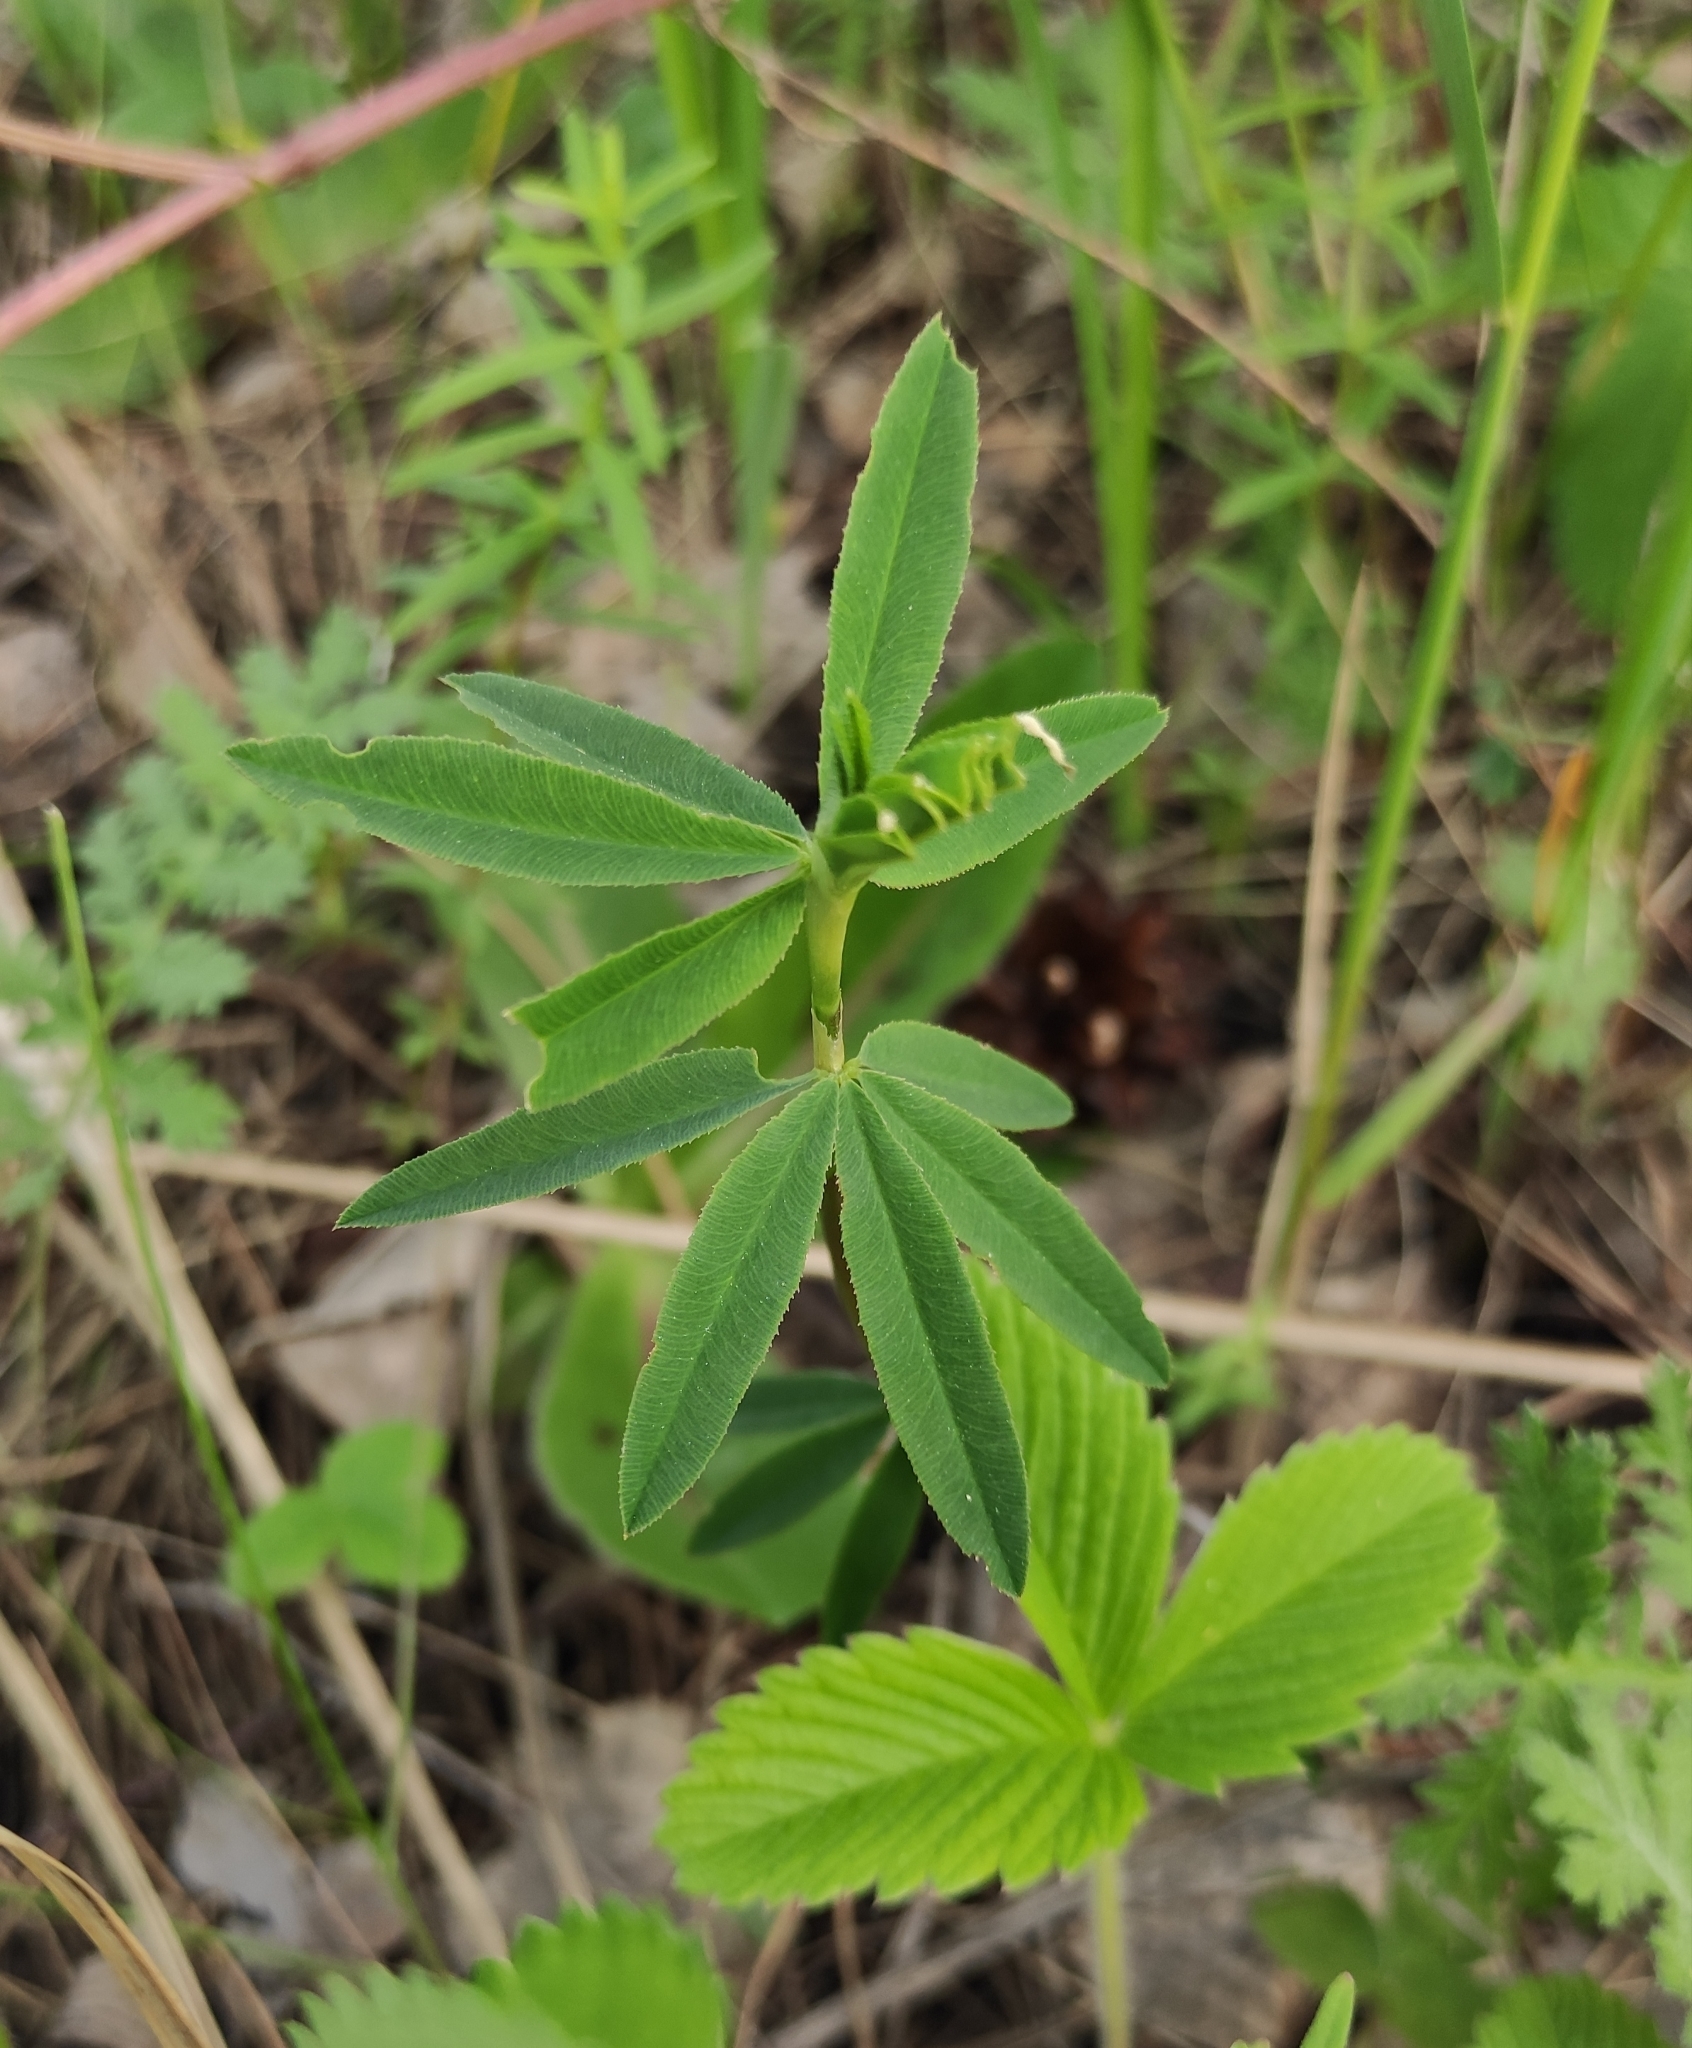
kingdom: Plantae
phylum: Tracheophyta
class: Magnoliopsida
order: Fabales
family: Fabaceae
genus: Trifolium
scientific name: Trifolium lupinaster
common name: Lupine clover
